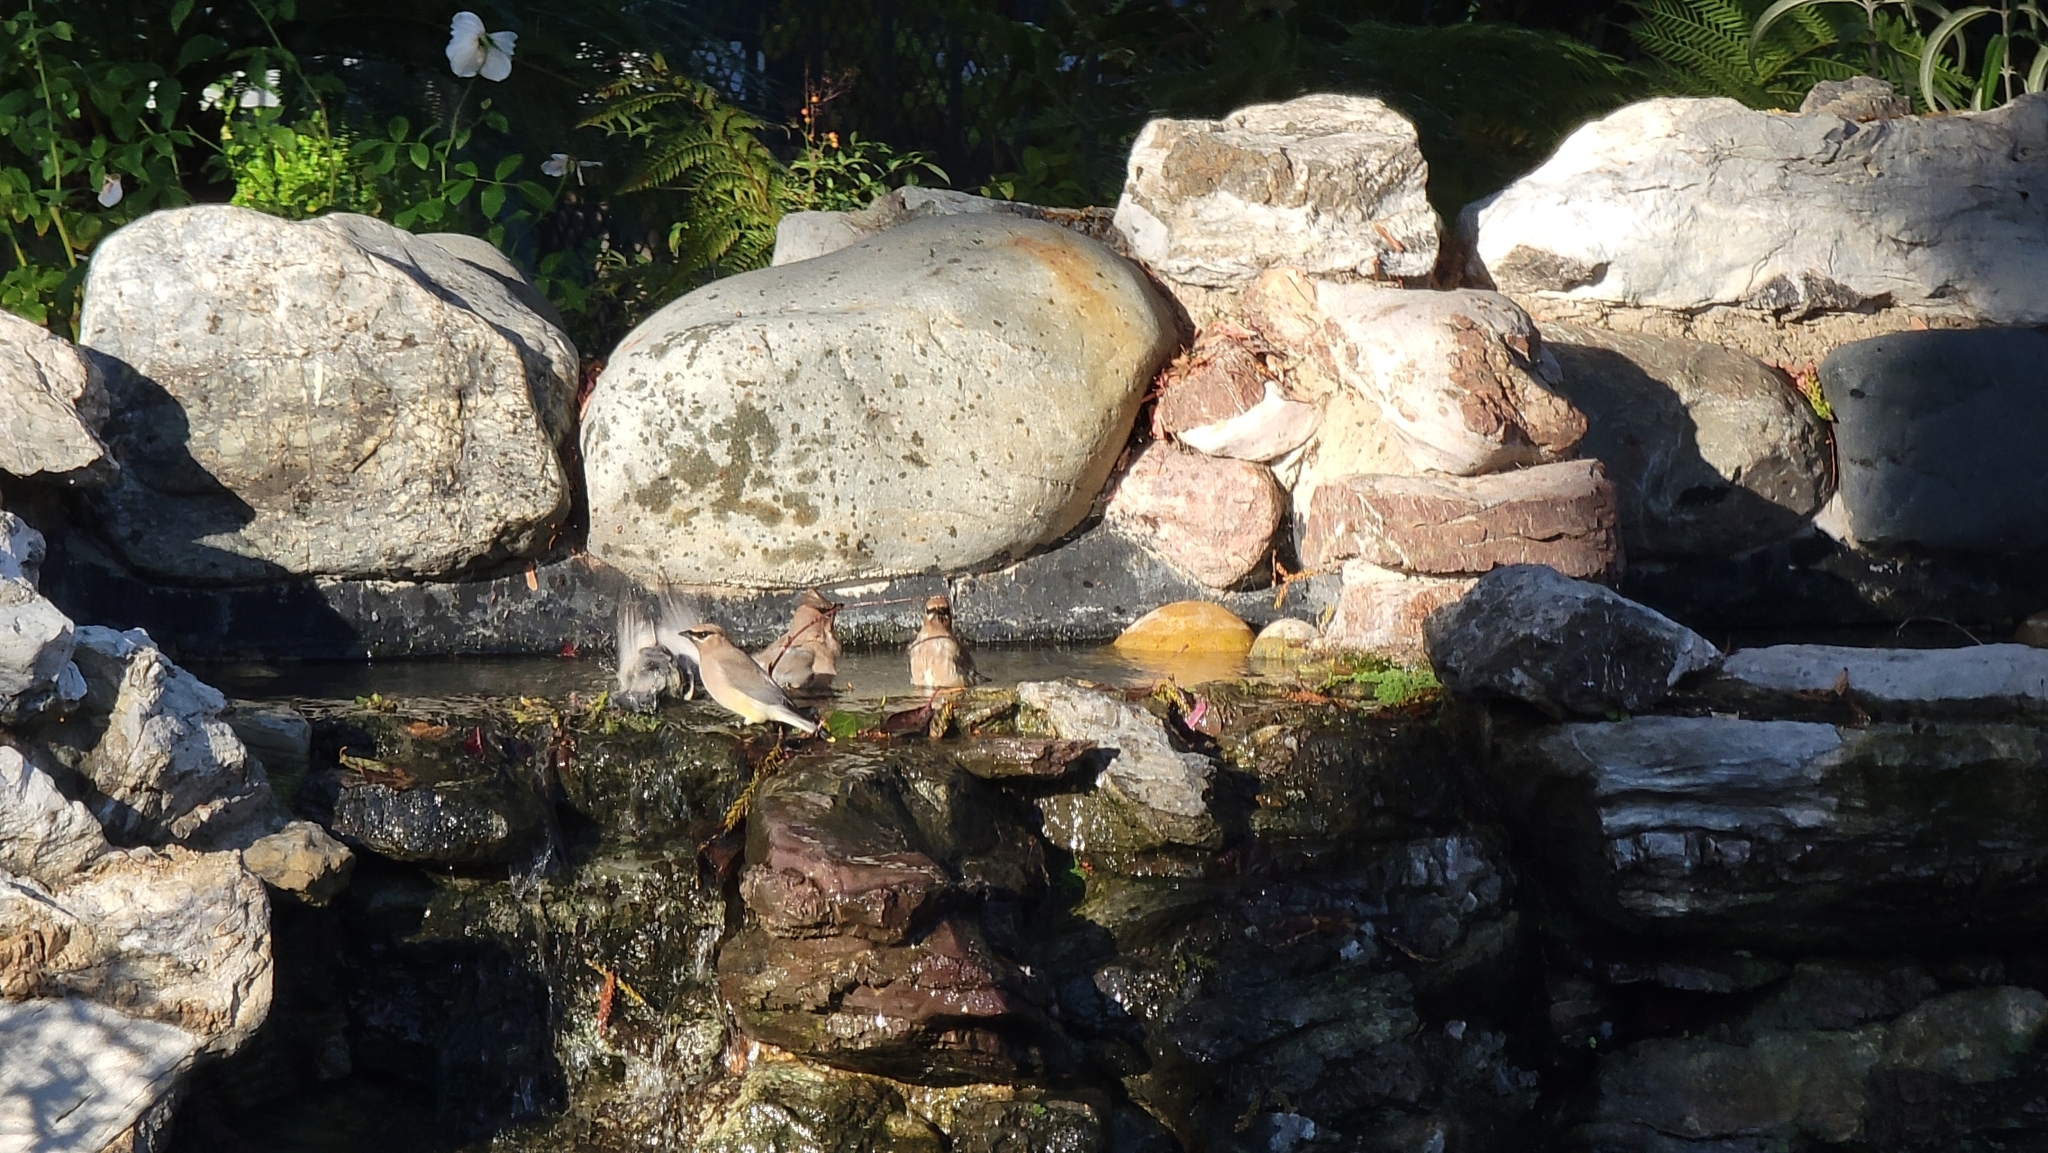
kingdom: Animalia
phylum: Chordata
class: Aves
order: Passeriformes
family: Bombycillidae
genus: Bombycilla
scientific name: Bombycilla cedrorum
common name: Cedar waxwing
